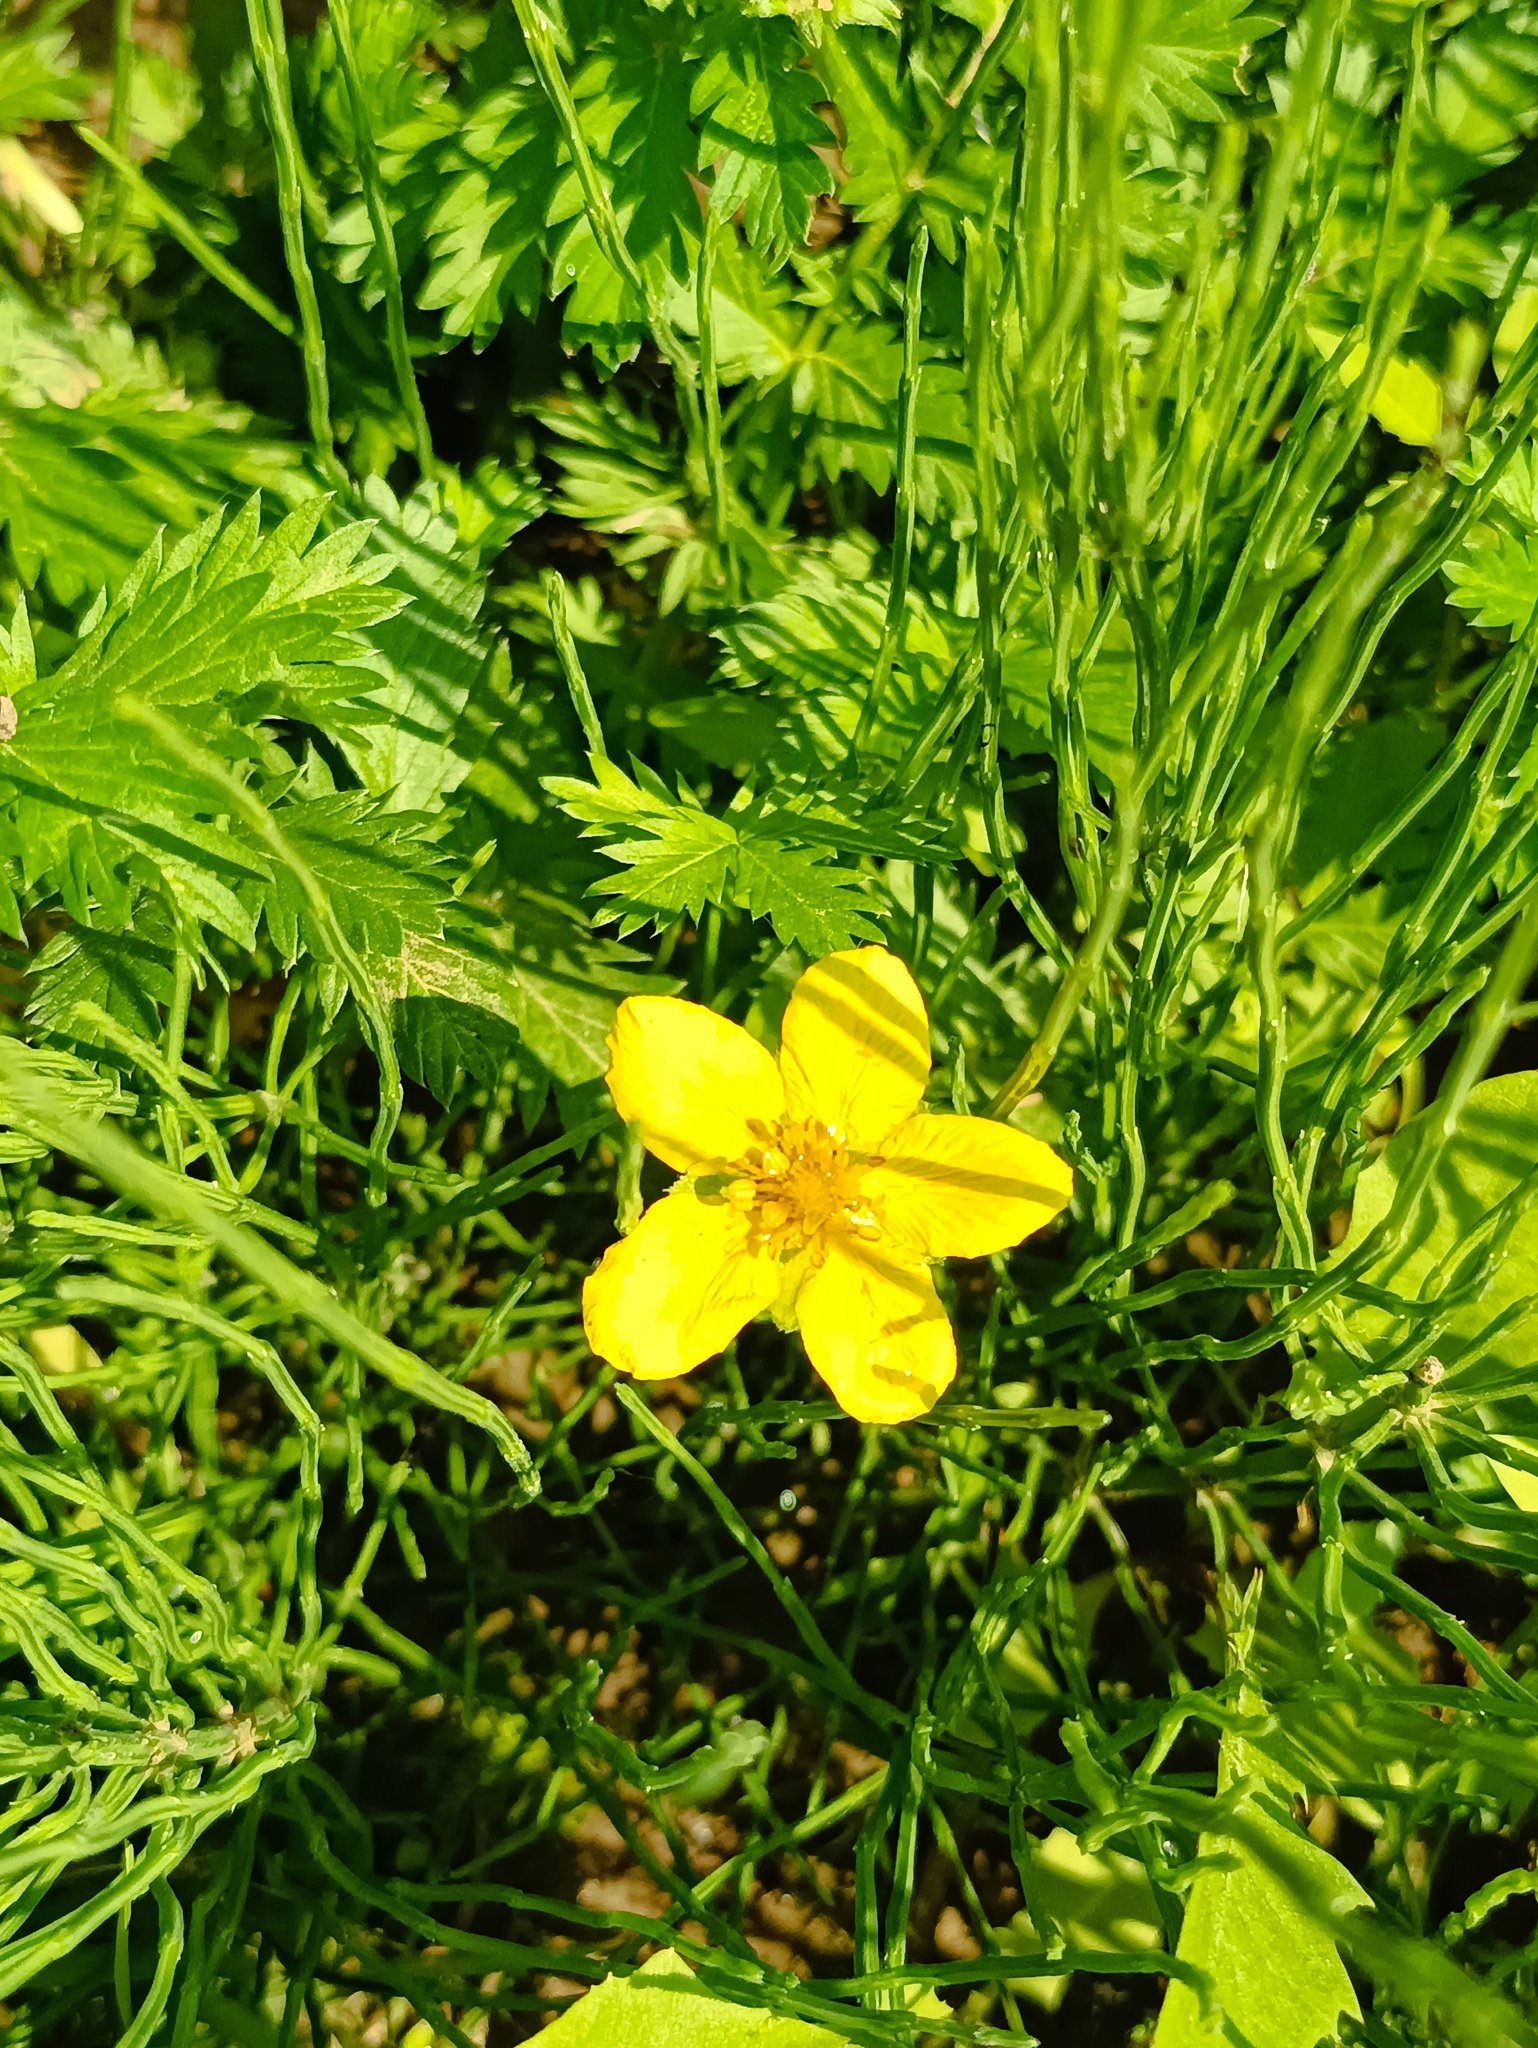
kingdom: Plantae
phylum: Tracheophyta
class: Magnoliopsida
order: Rosales
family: Rosaceae
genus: Argentina
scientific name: Argentina anserina
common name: Common silverweed
